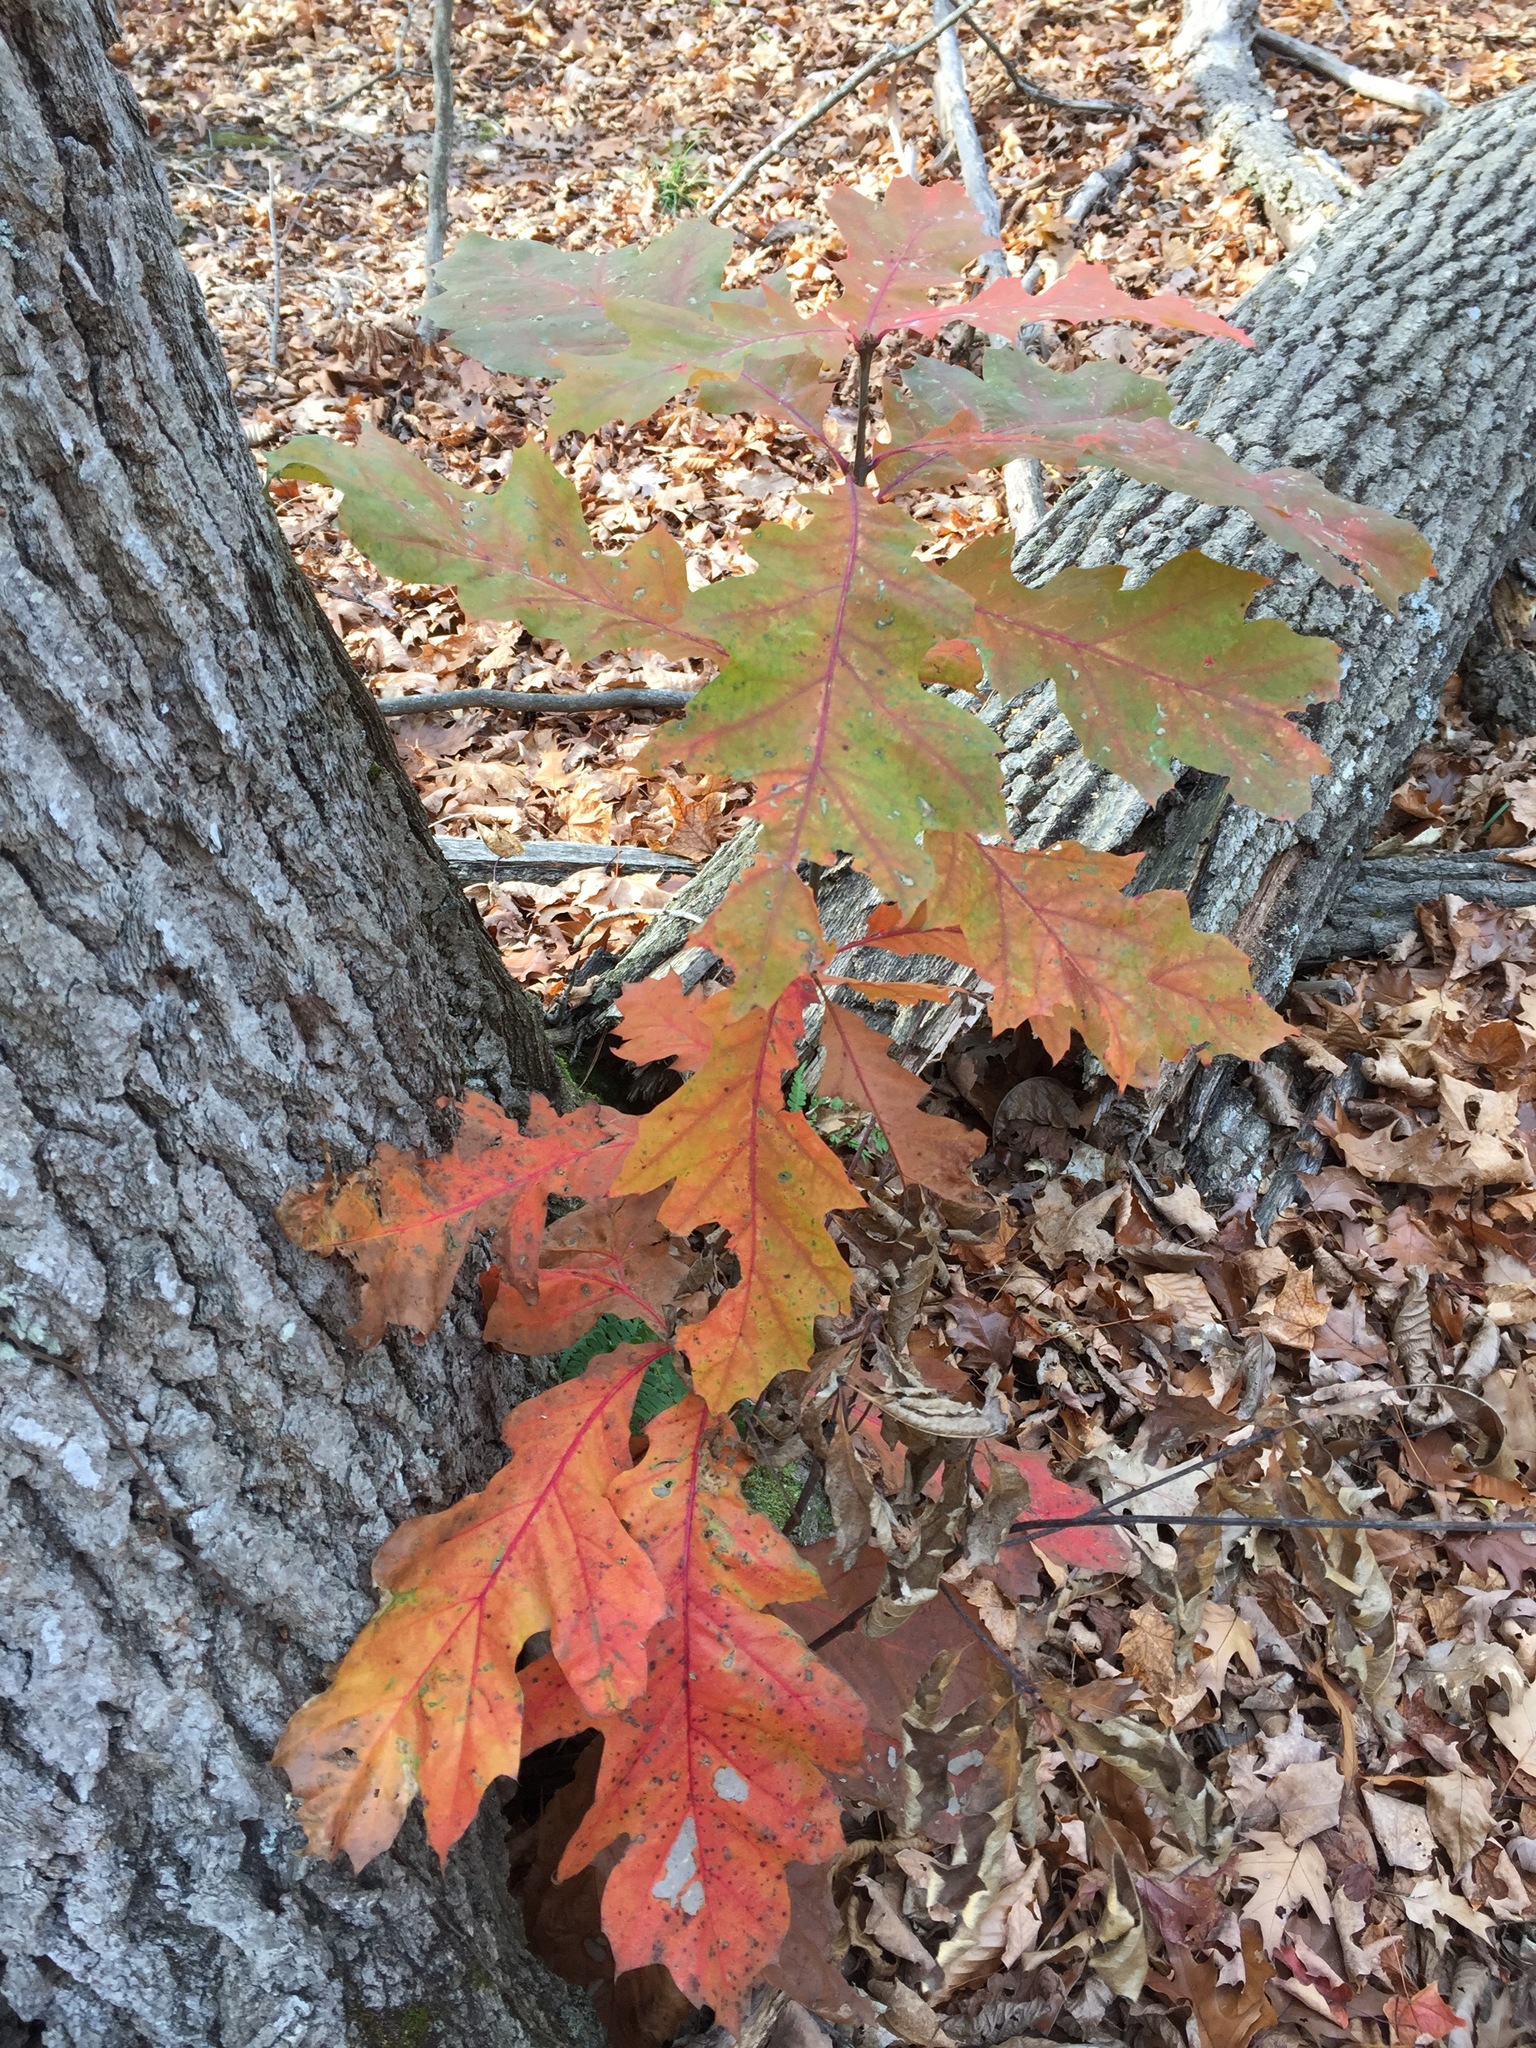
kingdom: Plantae
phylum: Tracheophyta
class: Magnoliopsida
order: Fagales
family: Fagaceae
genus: Quercus
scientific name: Quercus rubra
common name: Red oak
